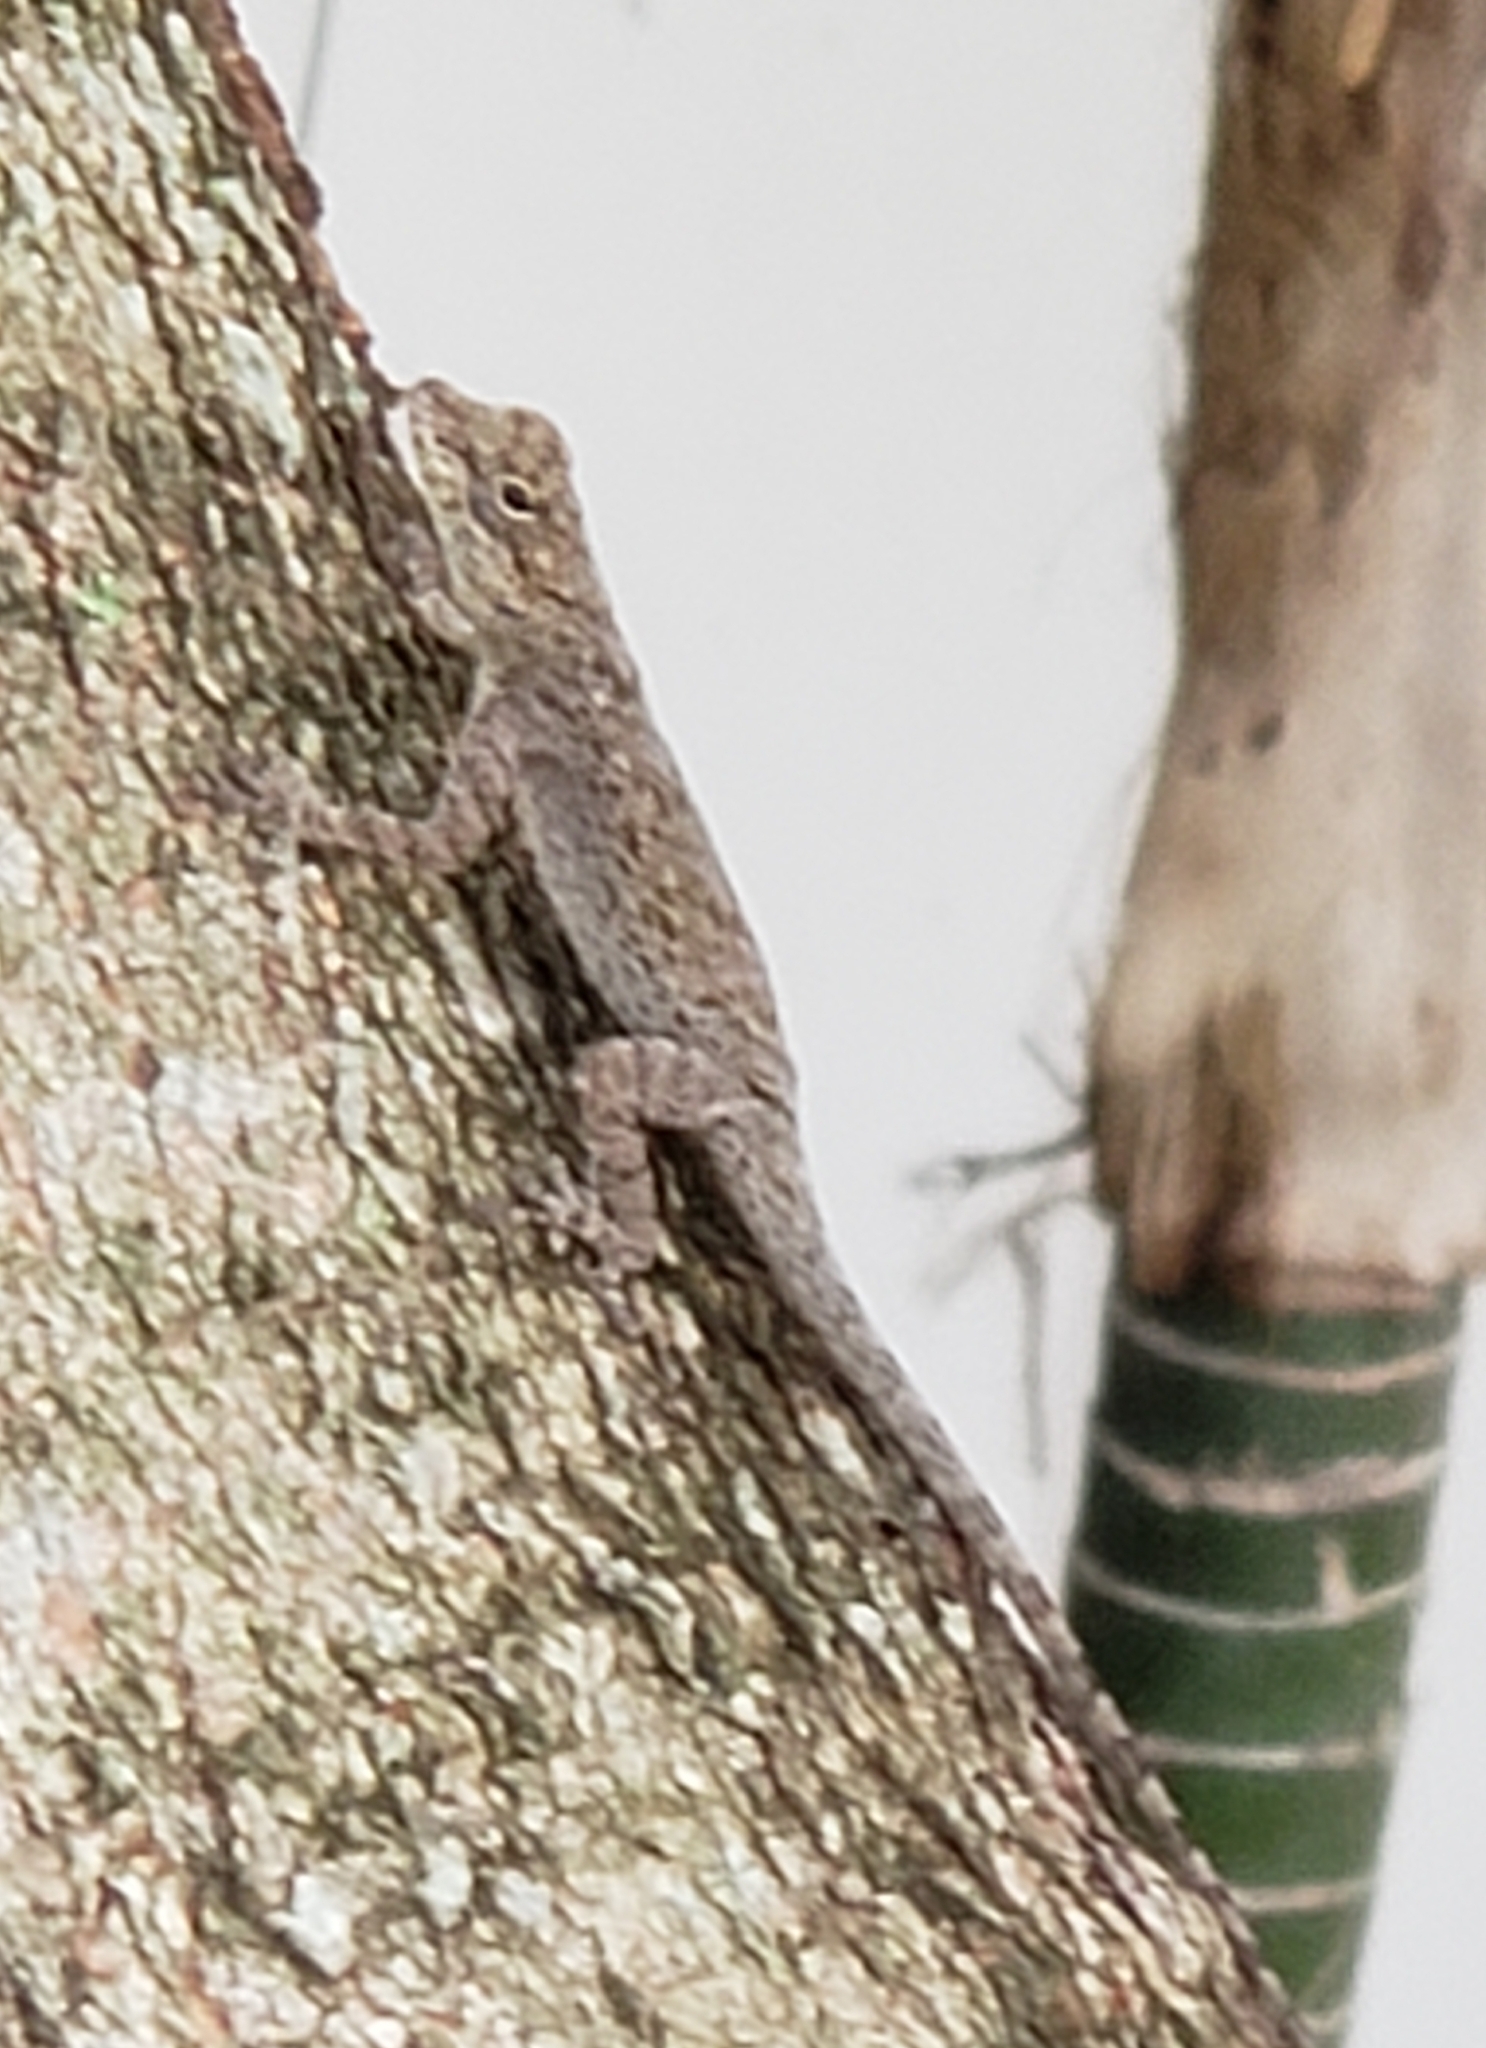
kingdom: Animalia
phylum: Chordata
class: Squamata
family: Dactyloidae
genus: Anolis
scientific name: Anolis distichus
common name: Bark anole
